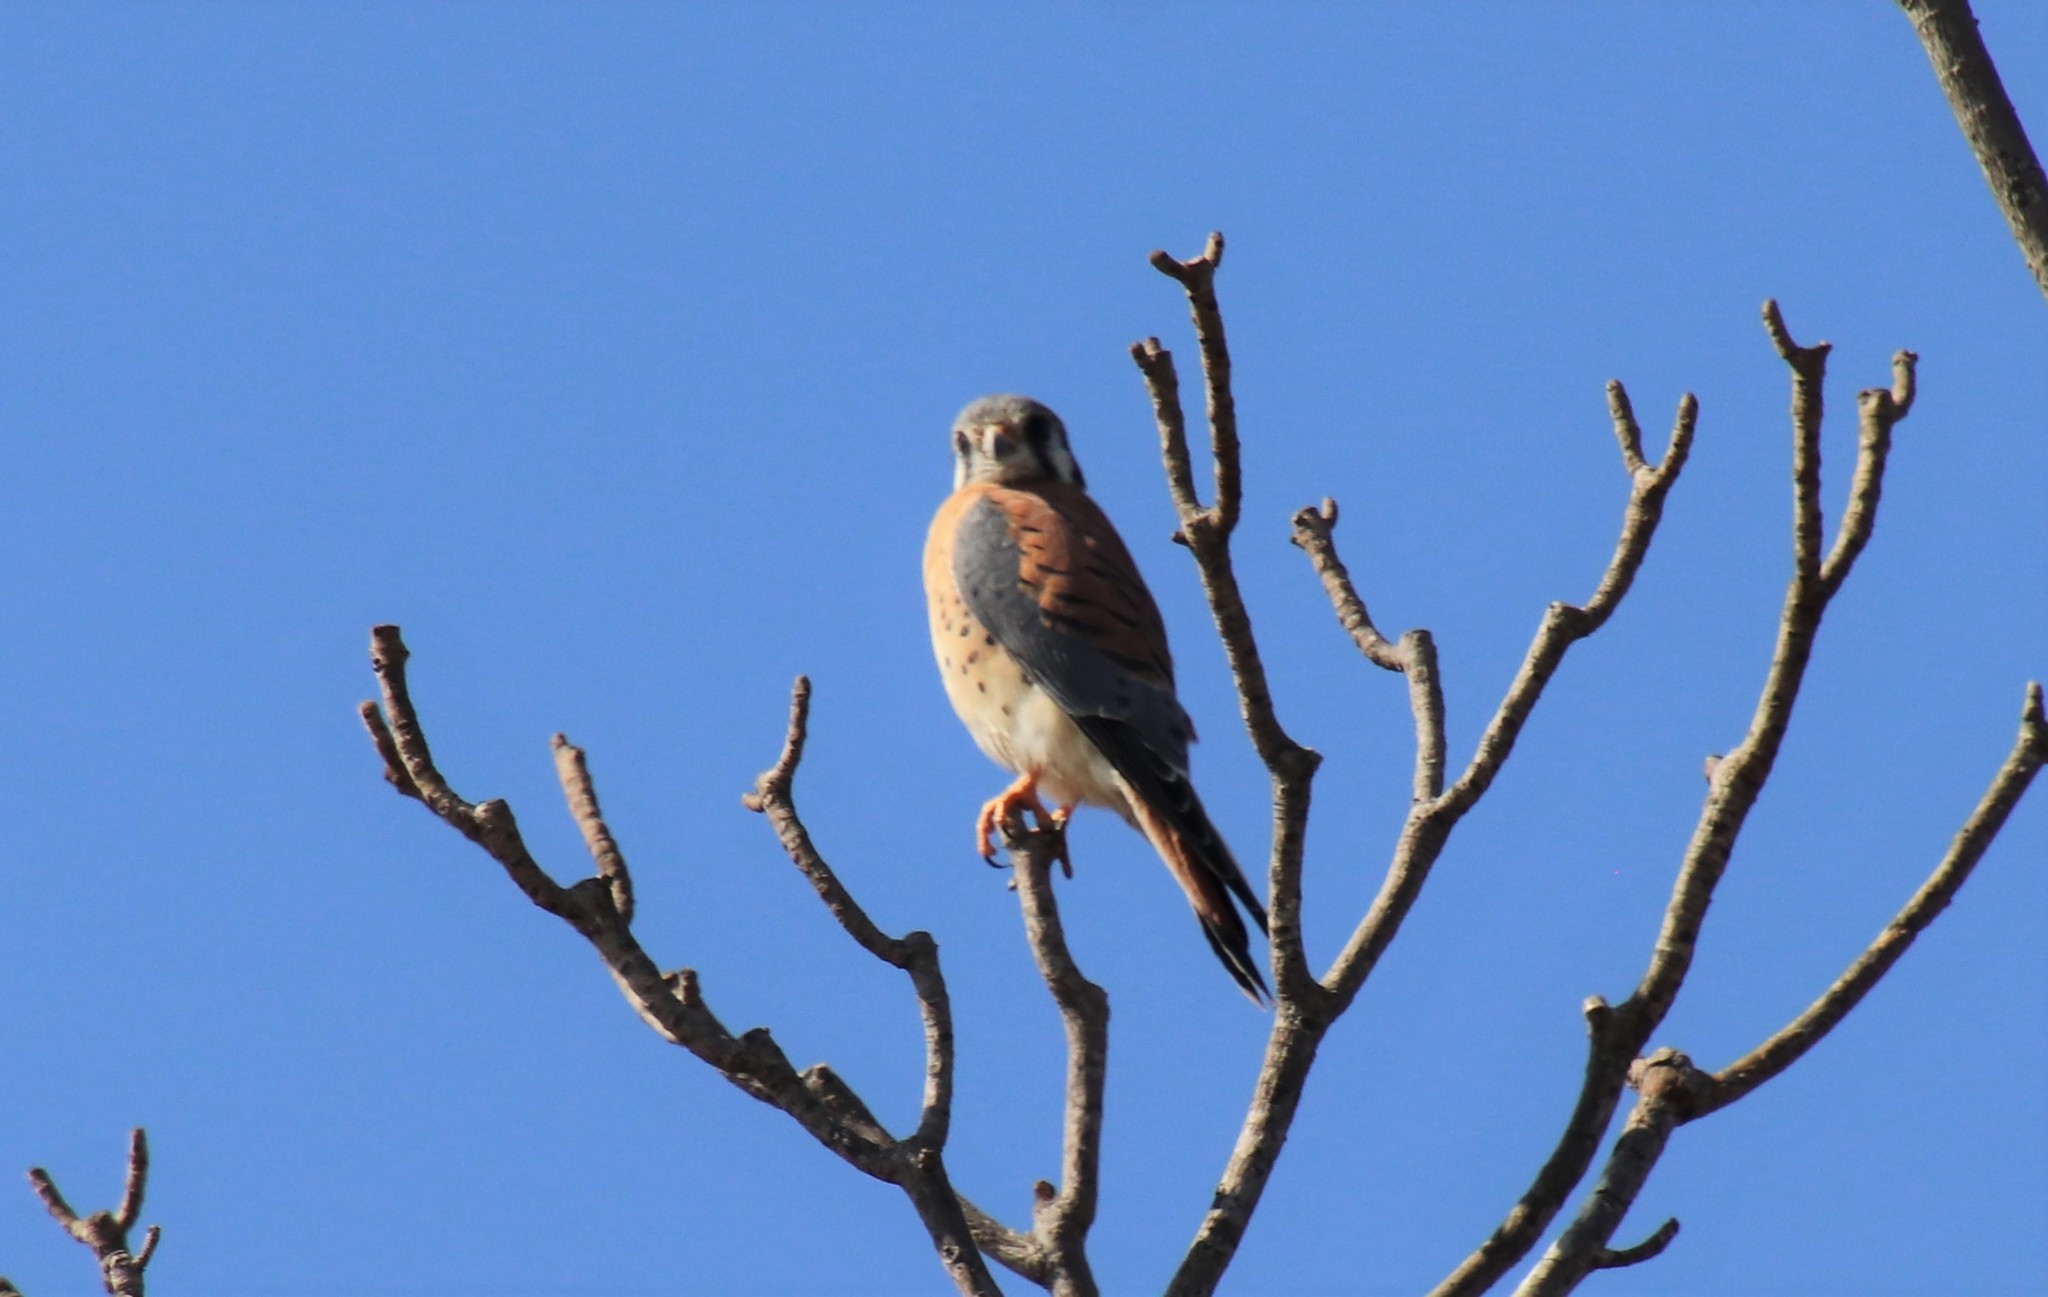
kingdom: Animalia
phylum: Chordata
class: Aves
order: Falconiformes
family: Falconidae
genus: Falco
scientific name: Falco sparverius
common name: American kestrel
